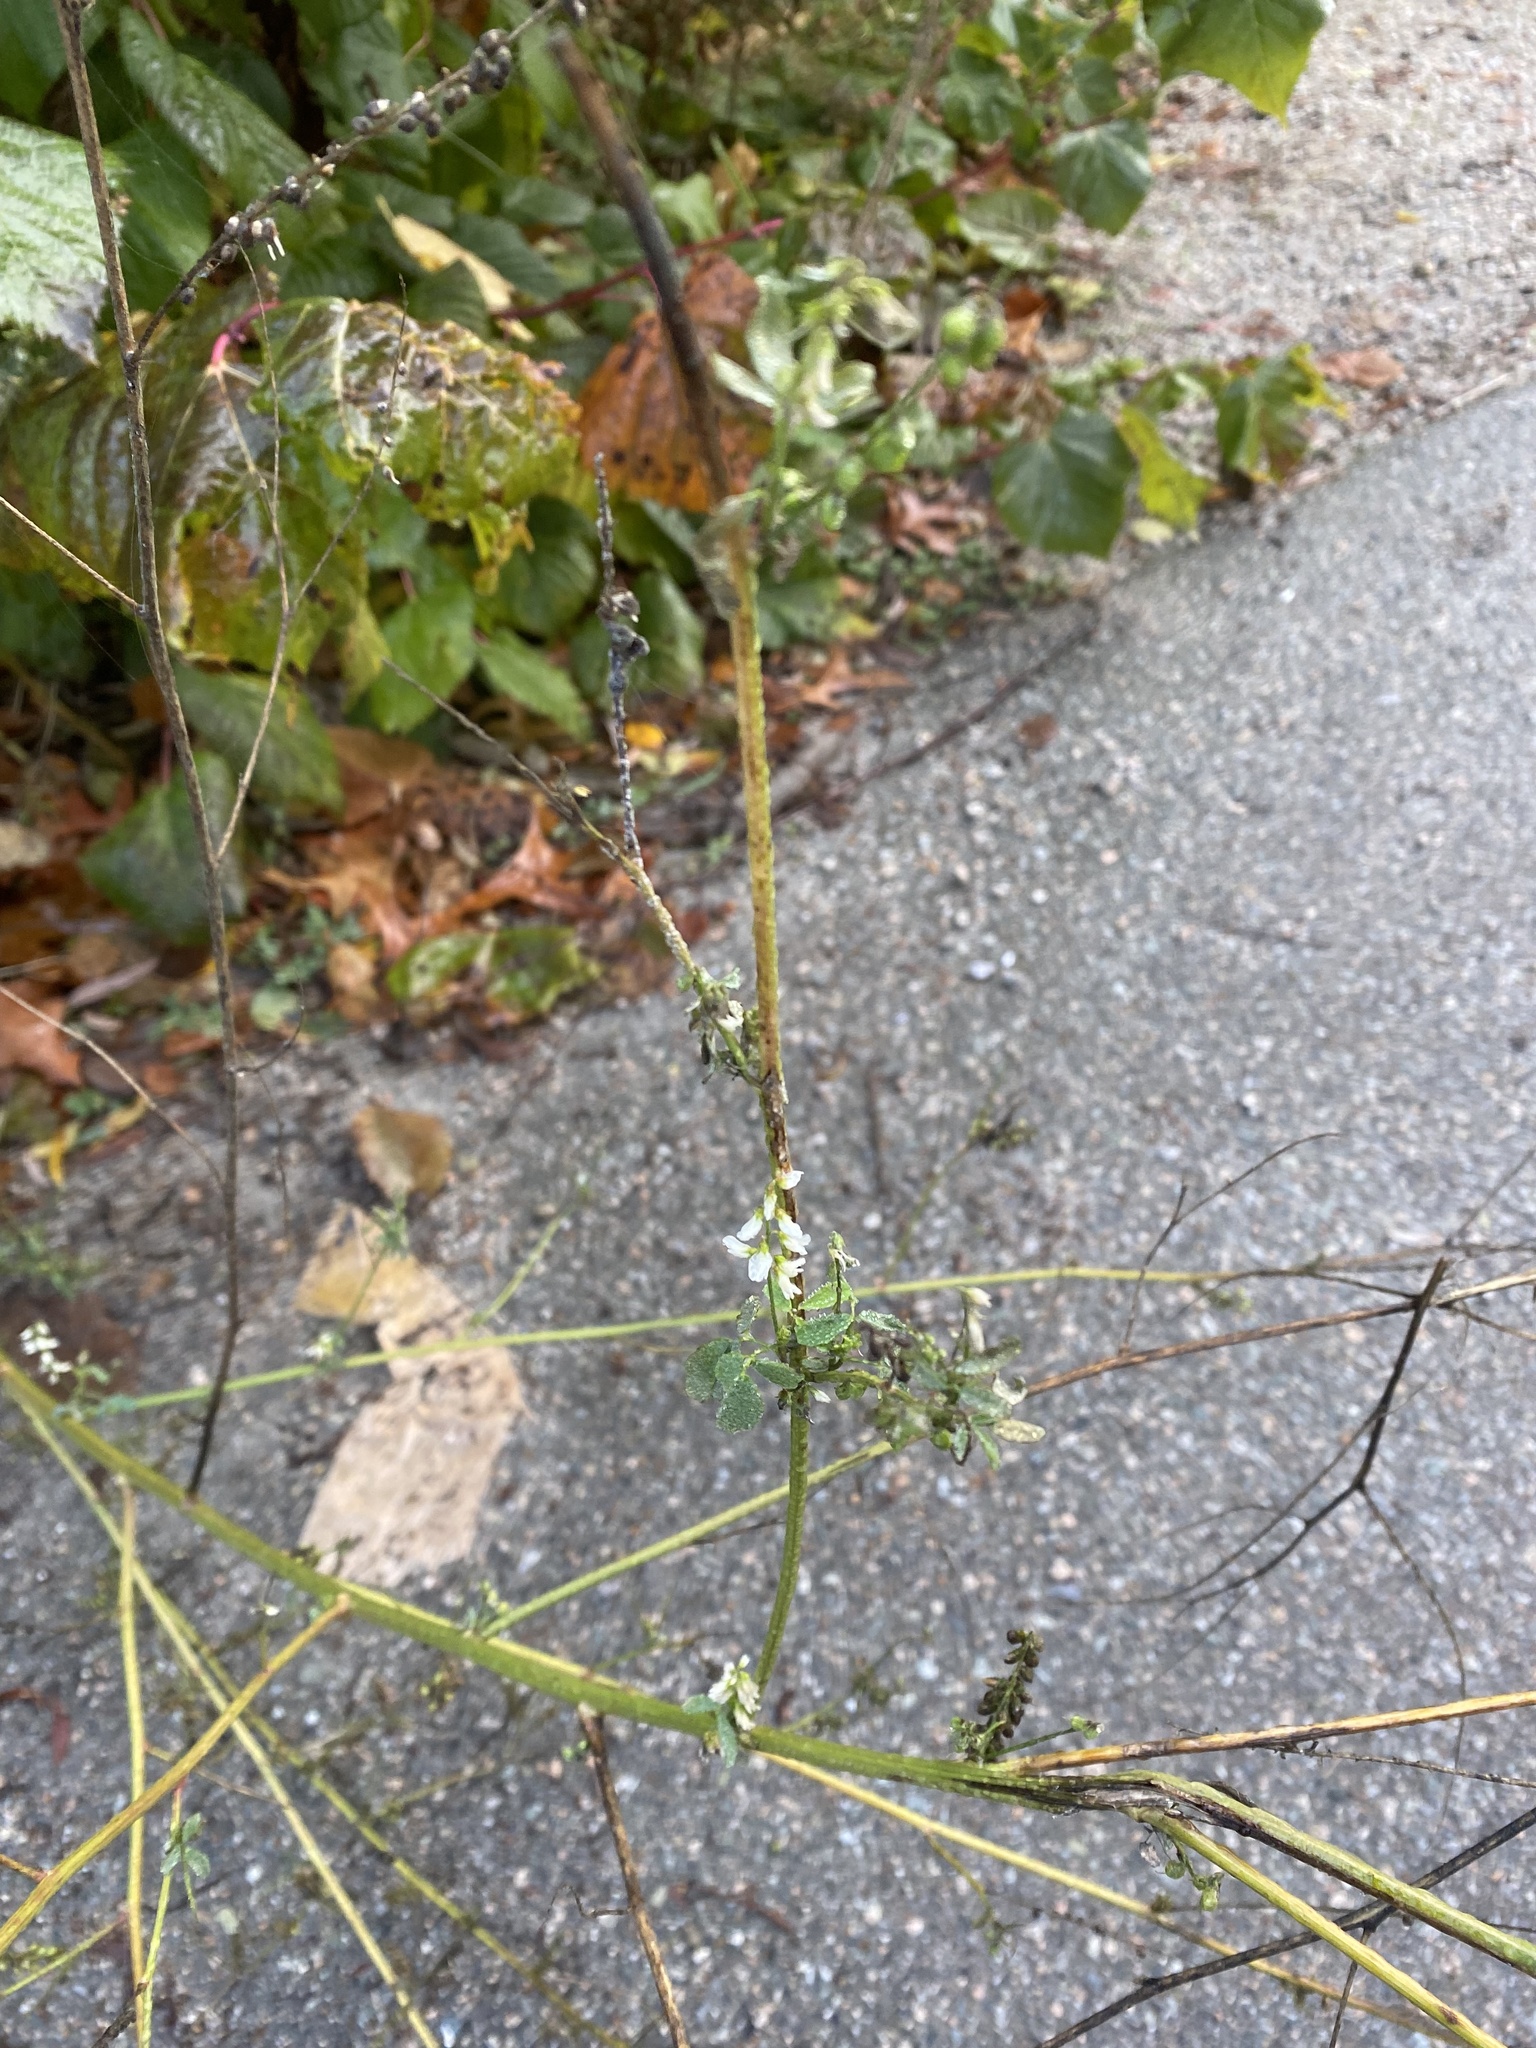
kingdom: Plantae
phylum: Tracheophyta
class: Magnoliopsida
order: Fabales
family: Fabaceae
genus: Melilotus
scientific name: Melilotus albus
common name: White melilot
